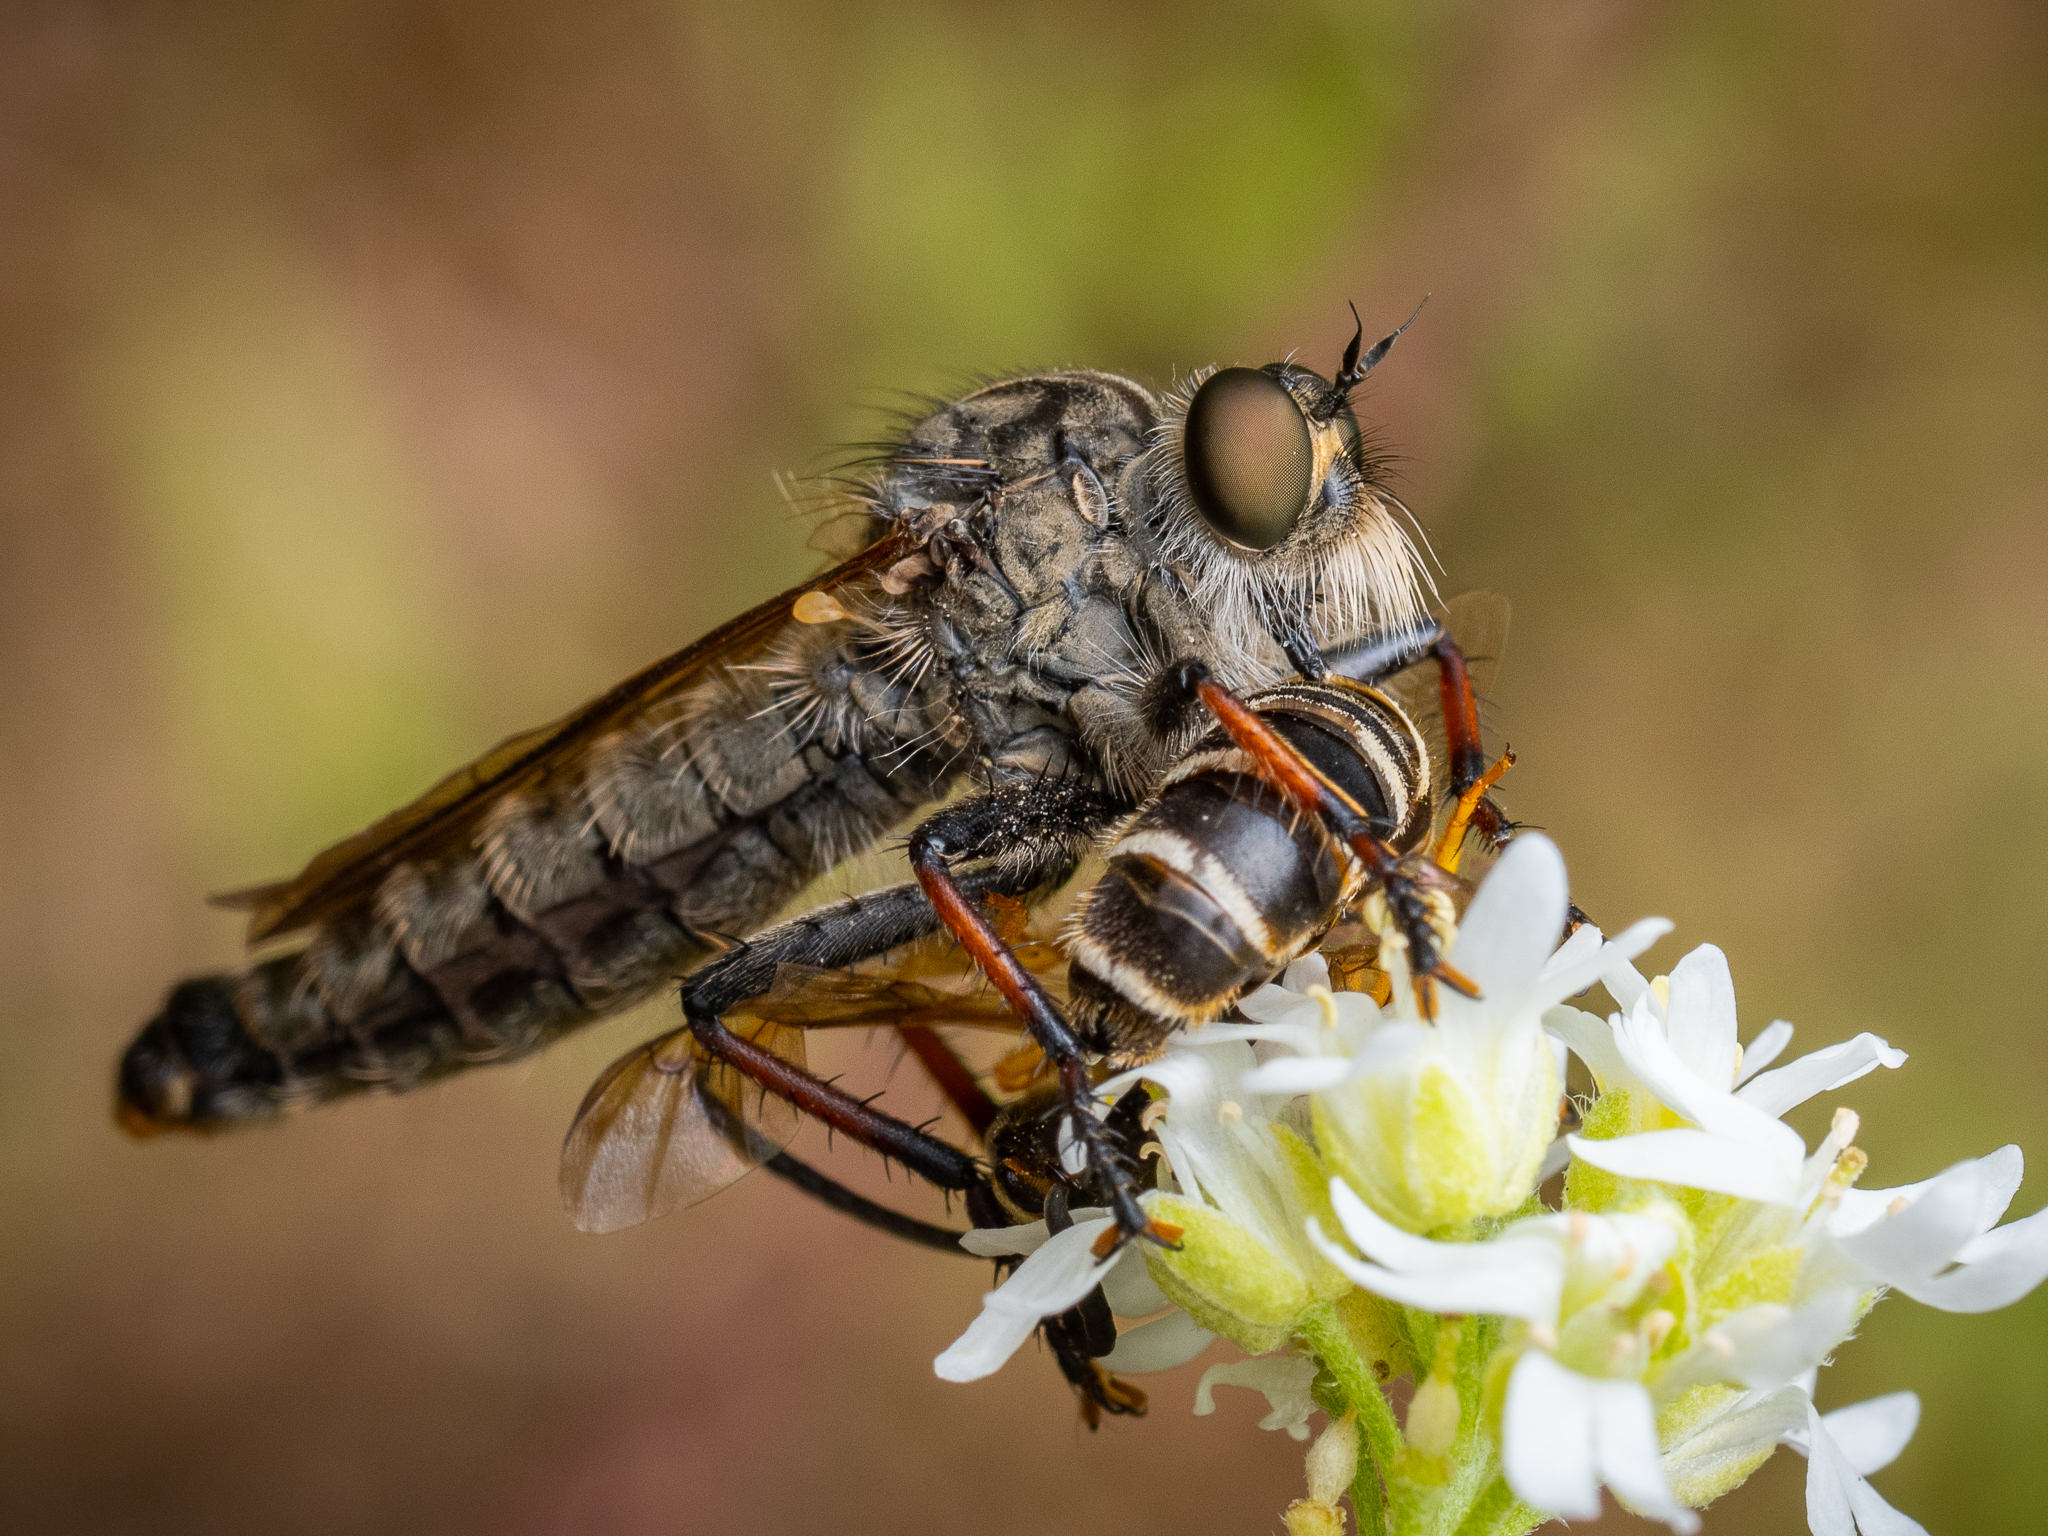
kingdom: Animalia
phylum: Arthropoda
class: Insecta
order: Diptera
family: Asilidae
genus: Antipalus
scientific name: Antipalus varipes
